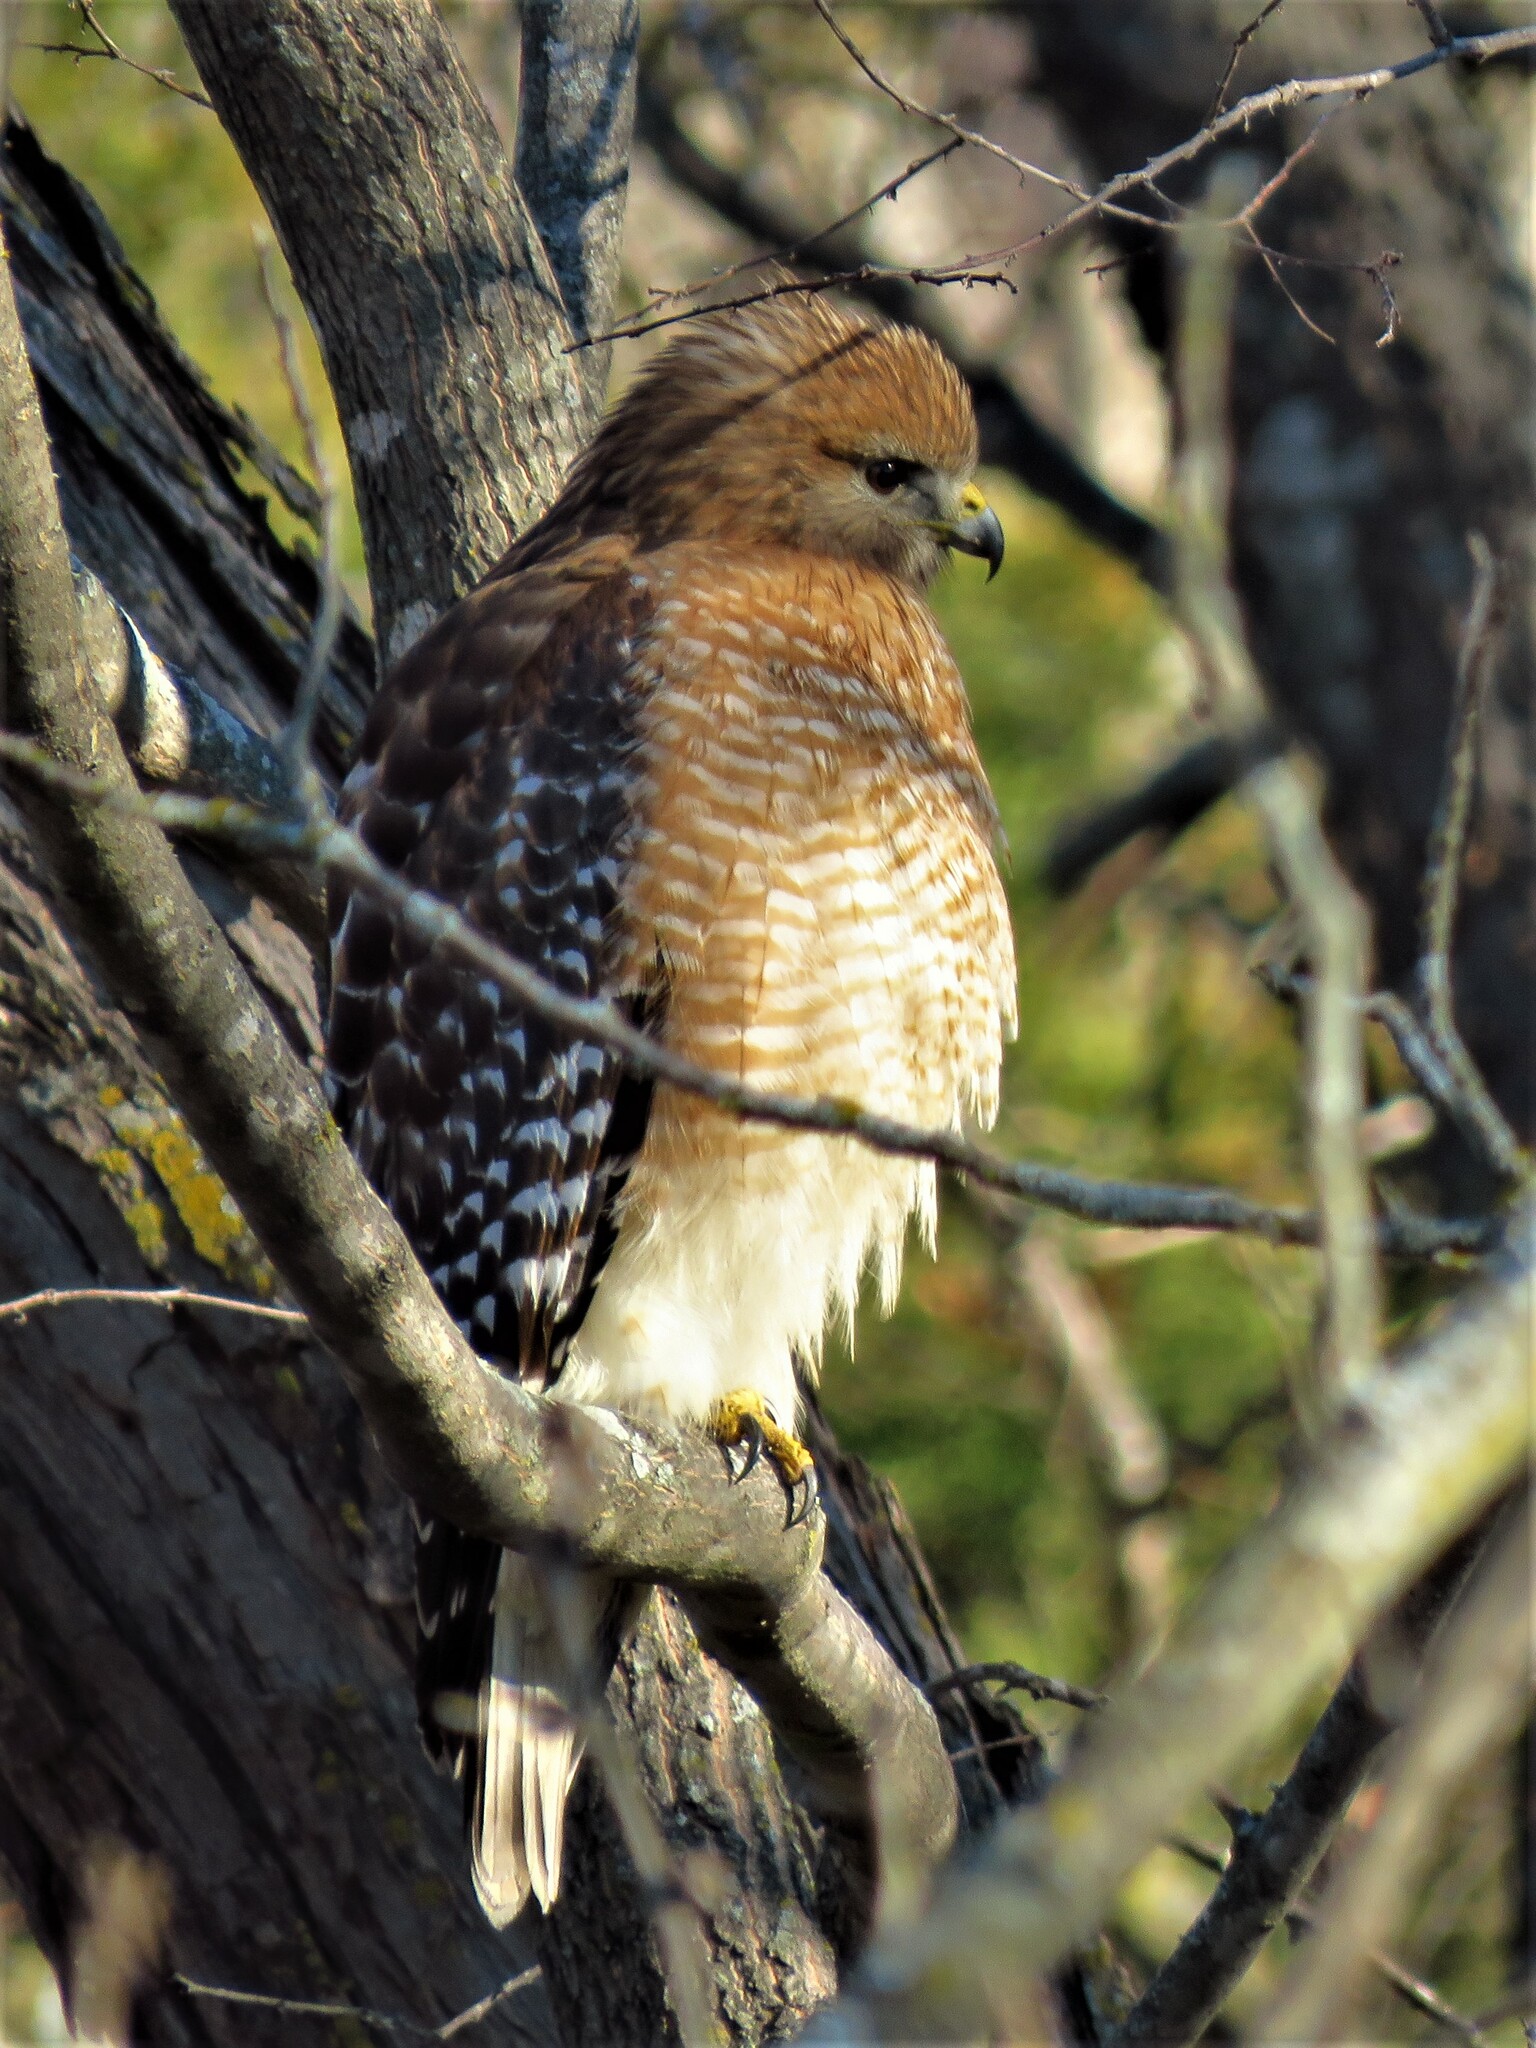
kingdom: Animalia
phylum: Chordata
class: Aves
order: Accipitriformes
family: Accipitridae
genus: Buteo
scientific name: Buteo lineatus
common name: Red-shouldered hawk
